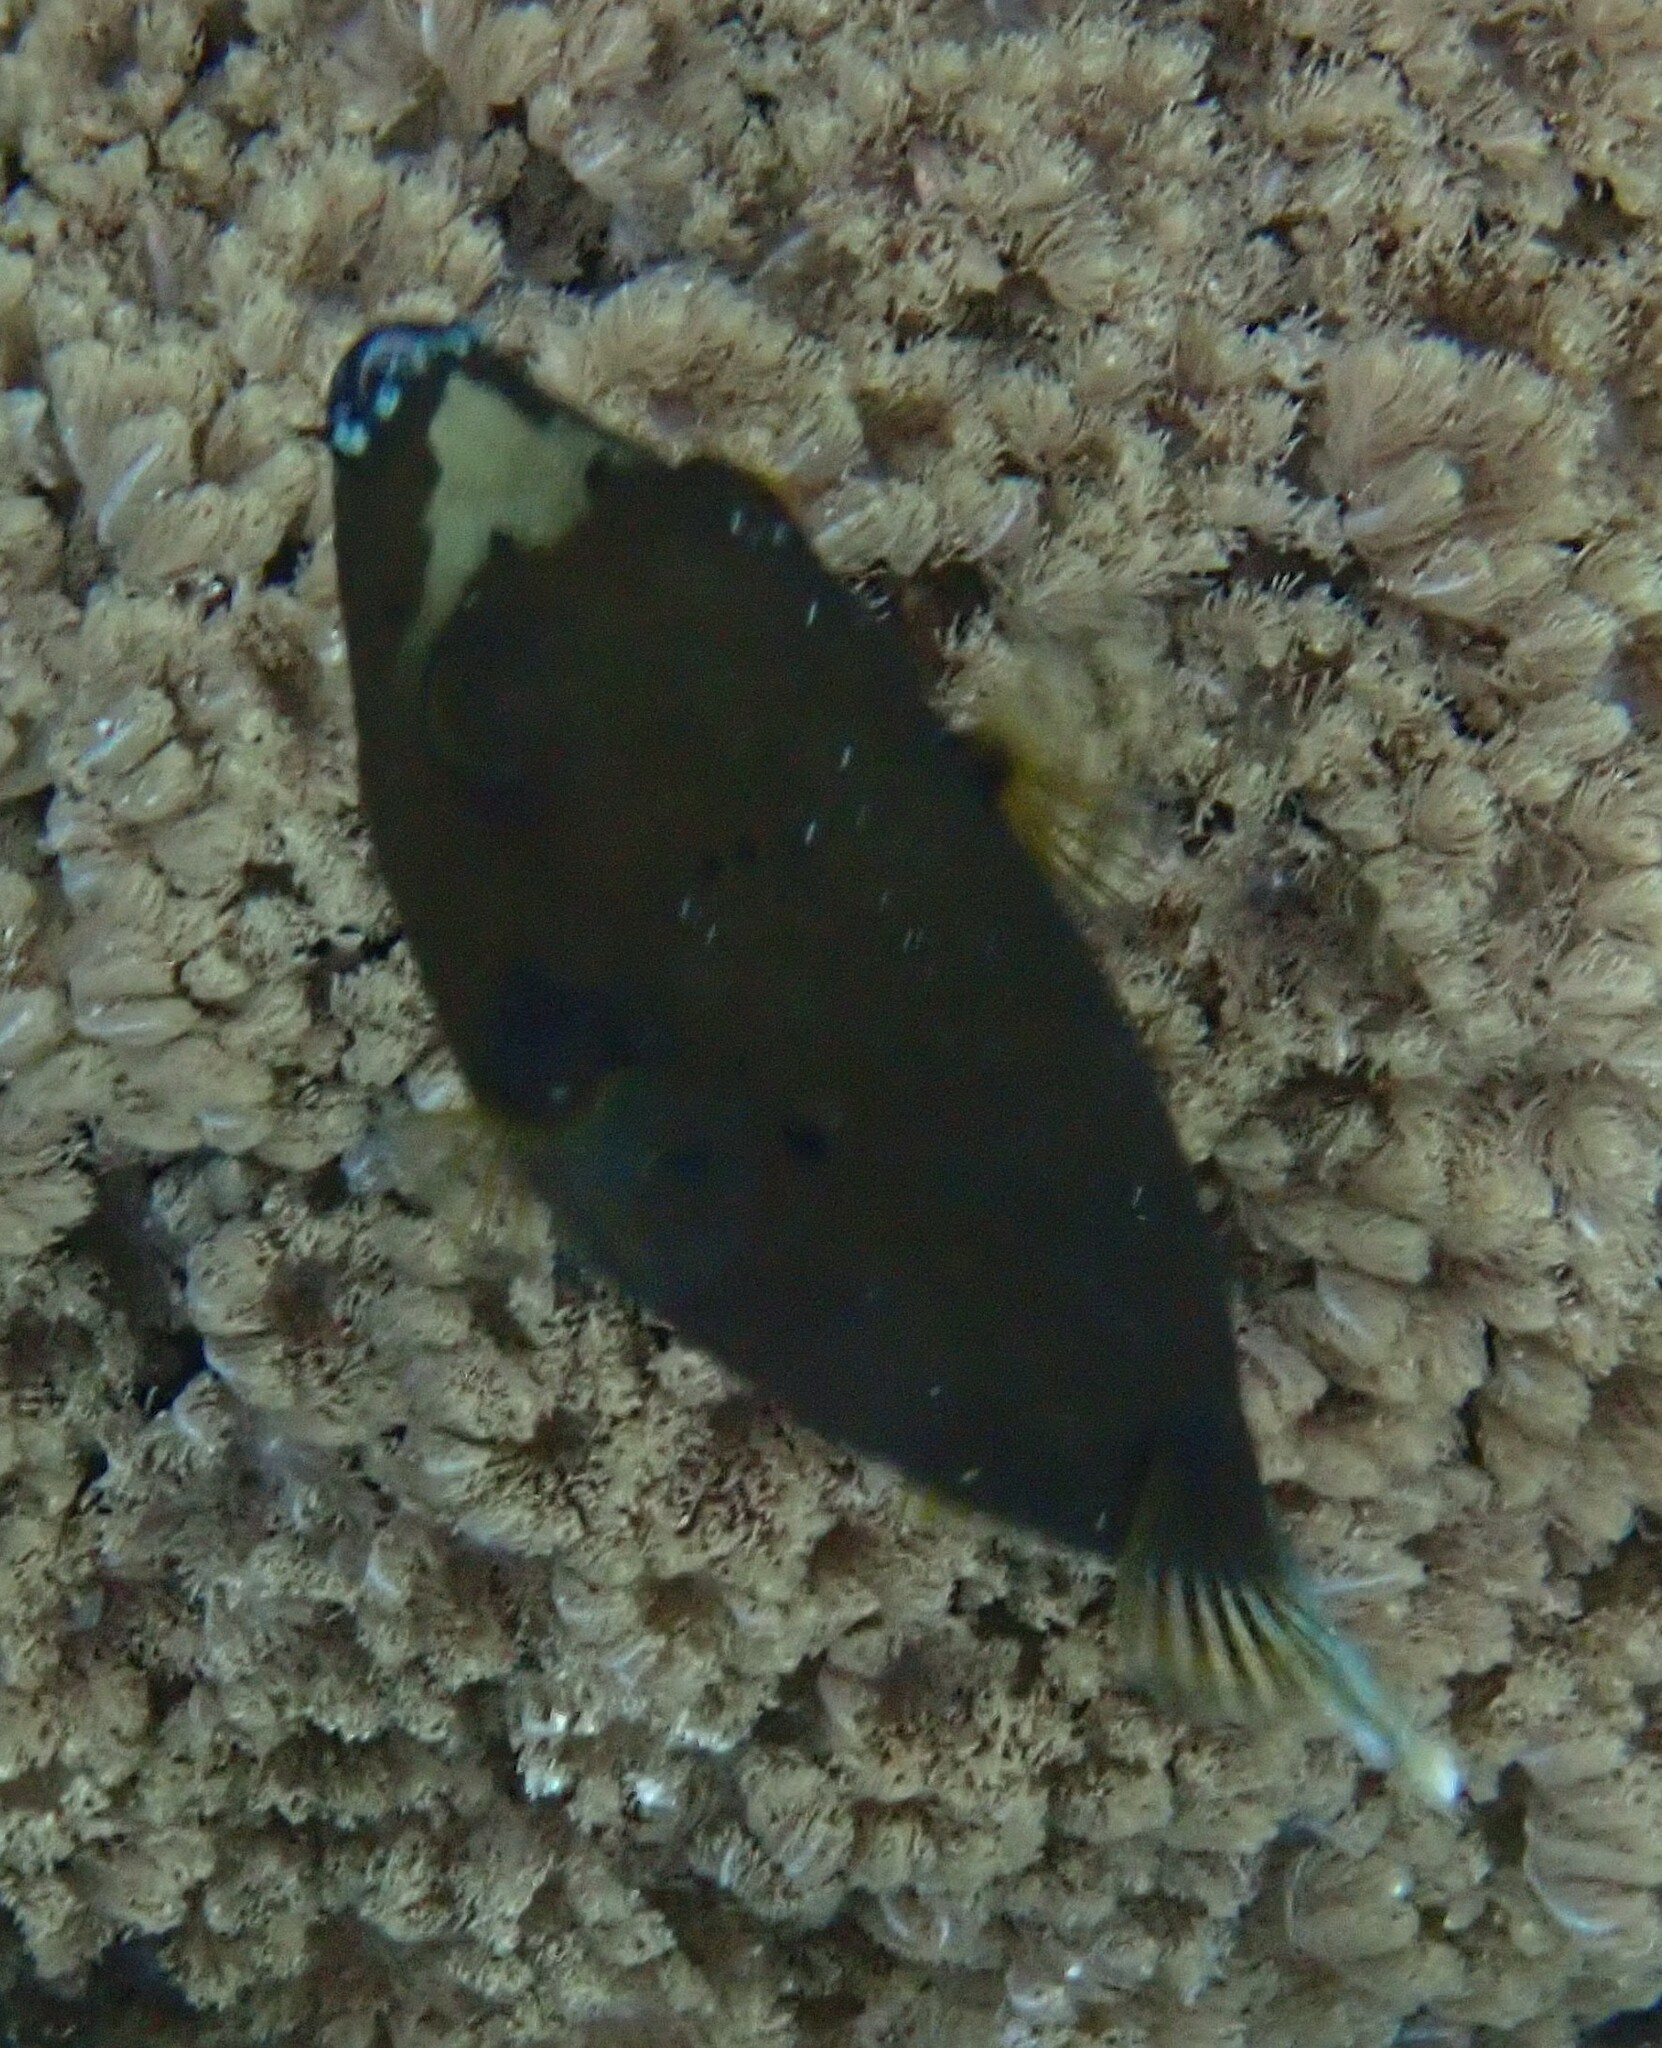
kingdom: Animalia
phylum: Chordata
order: Tetraodontiformes
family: Tetraodontidae
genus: Arothron
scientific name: Arothron nigropunctatus
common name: Black spotted blow fish
